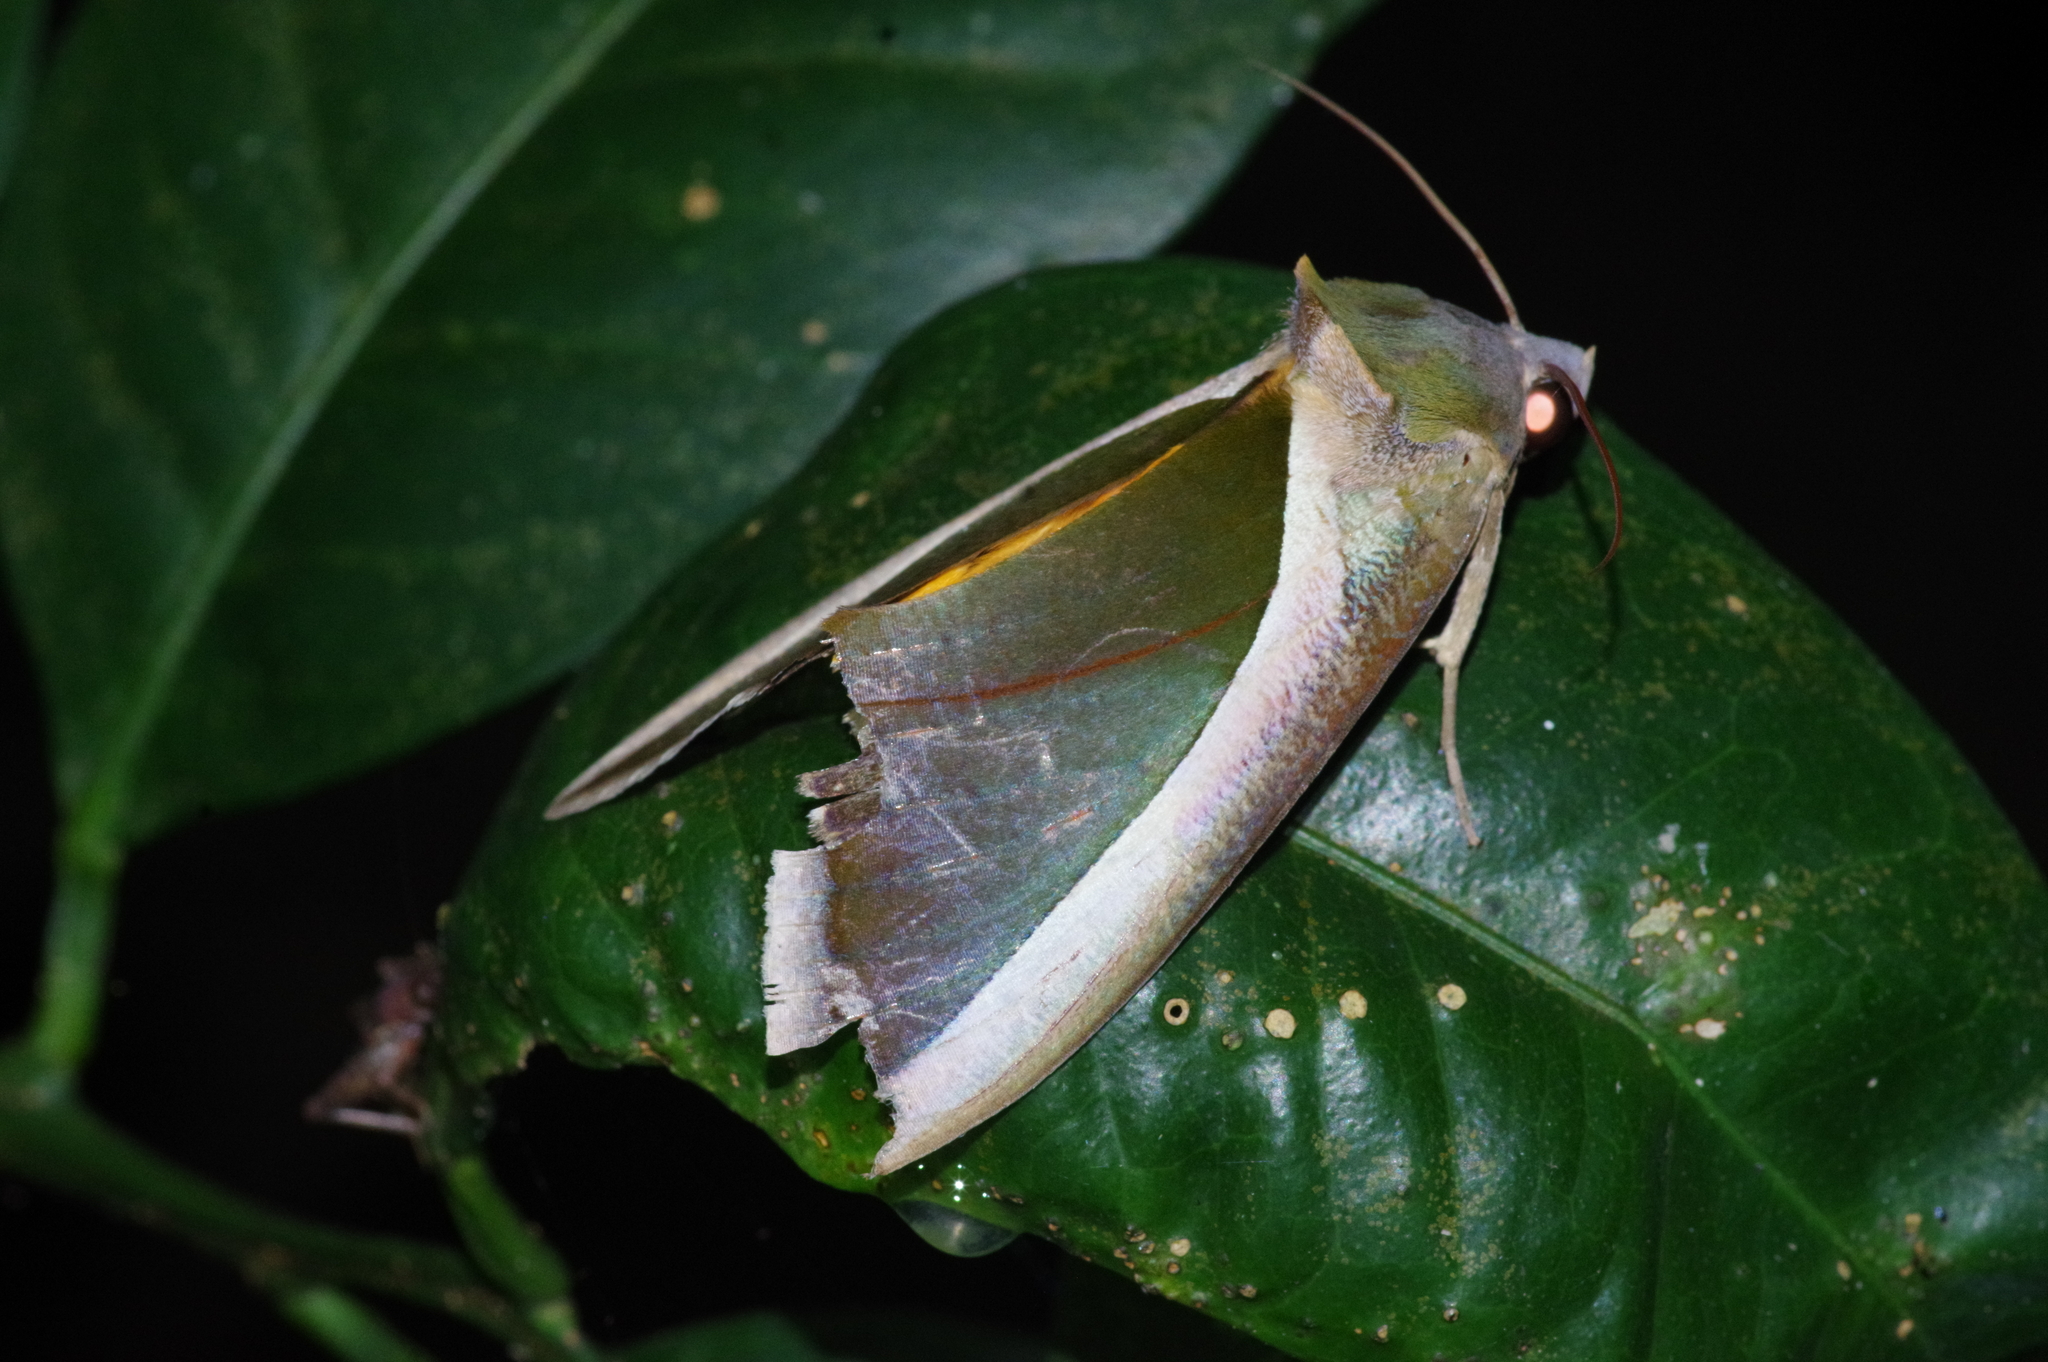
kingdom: Animalia
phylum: Arthropoda
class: Insecta
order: Lepidoptera
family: Erebidae
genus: Eudocima
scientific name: Eudocima salaminia
